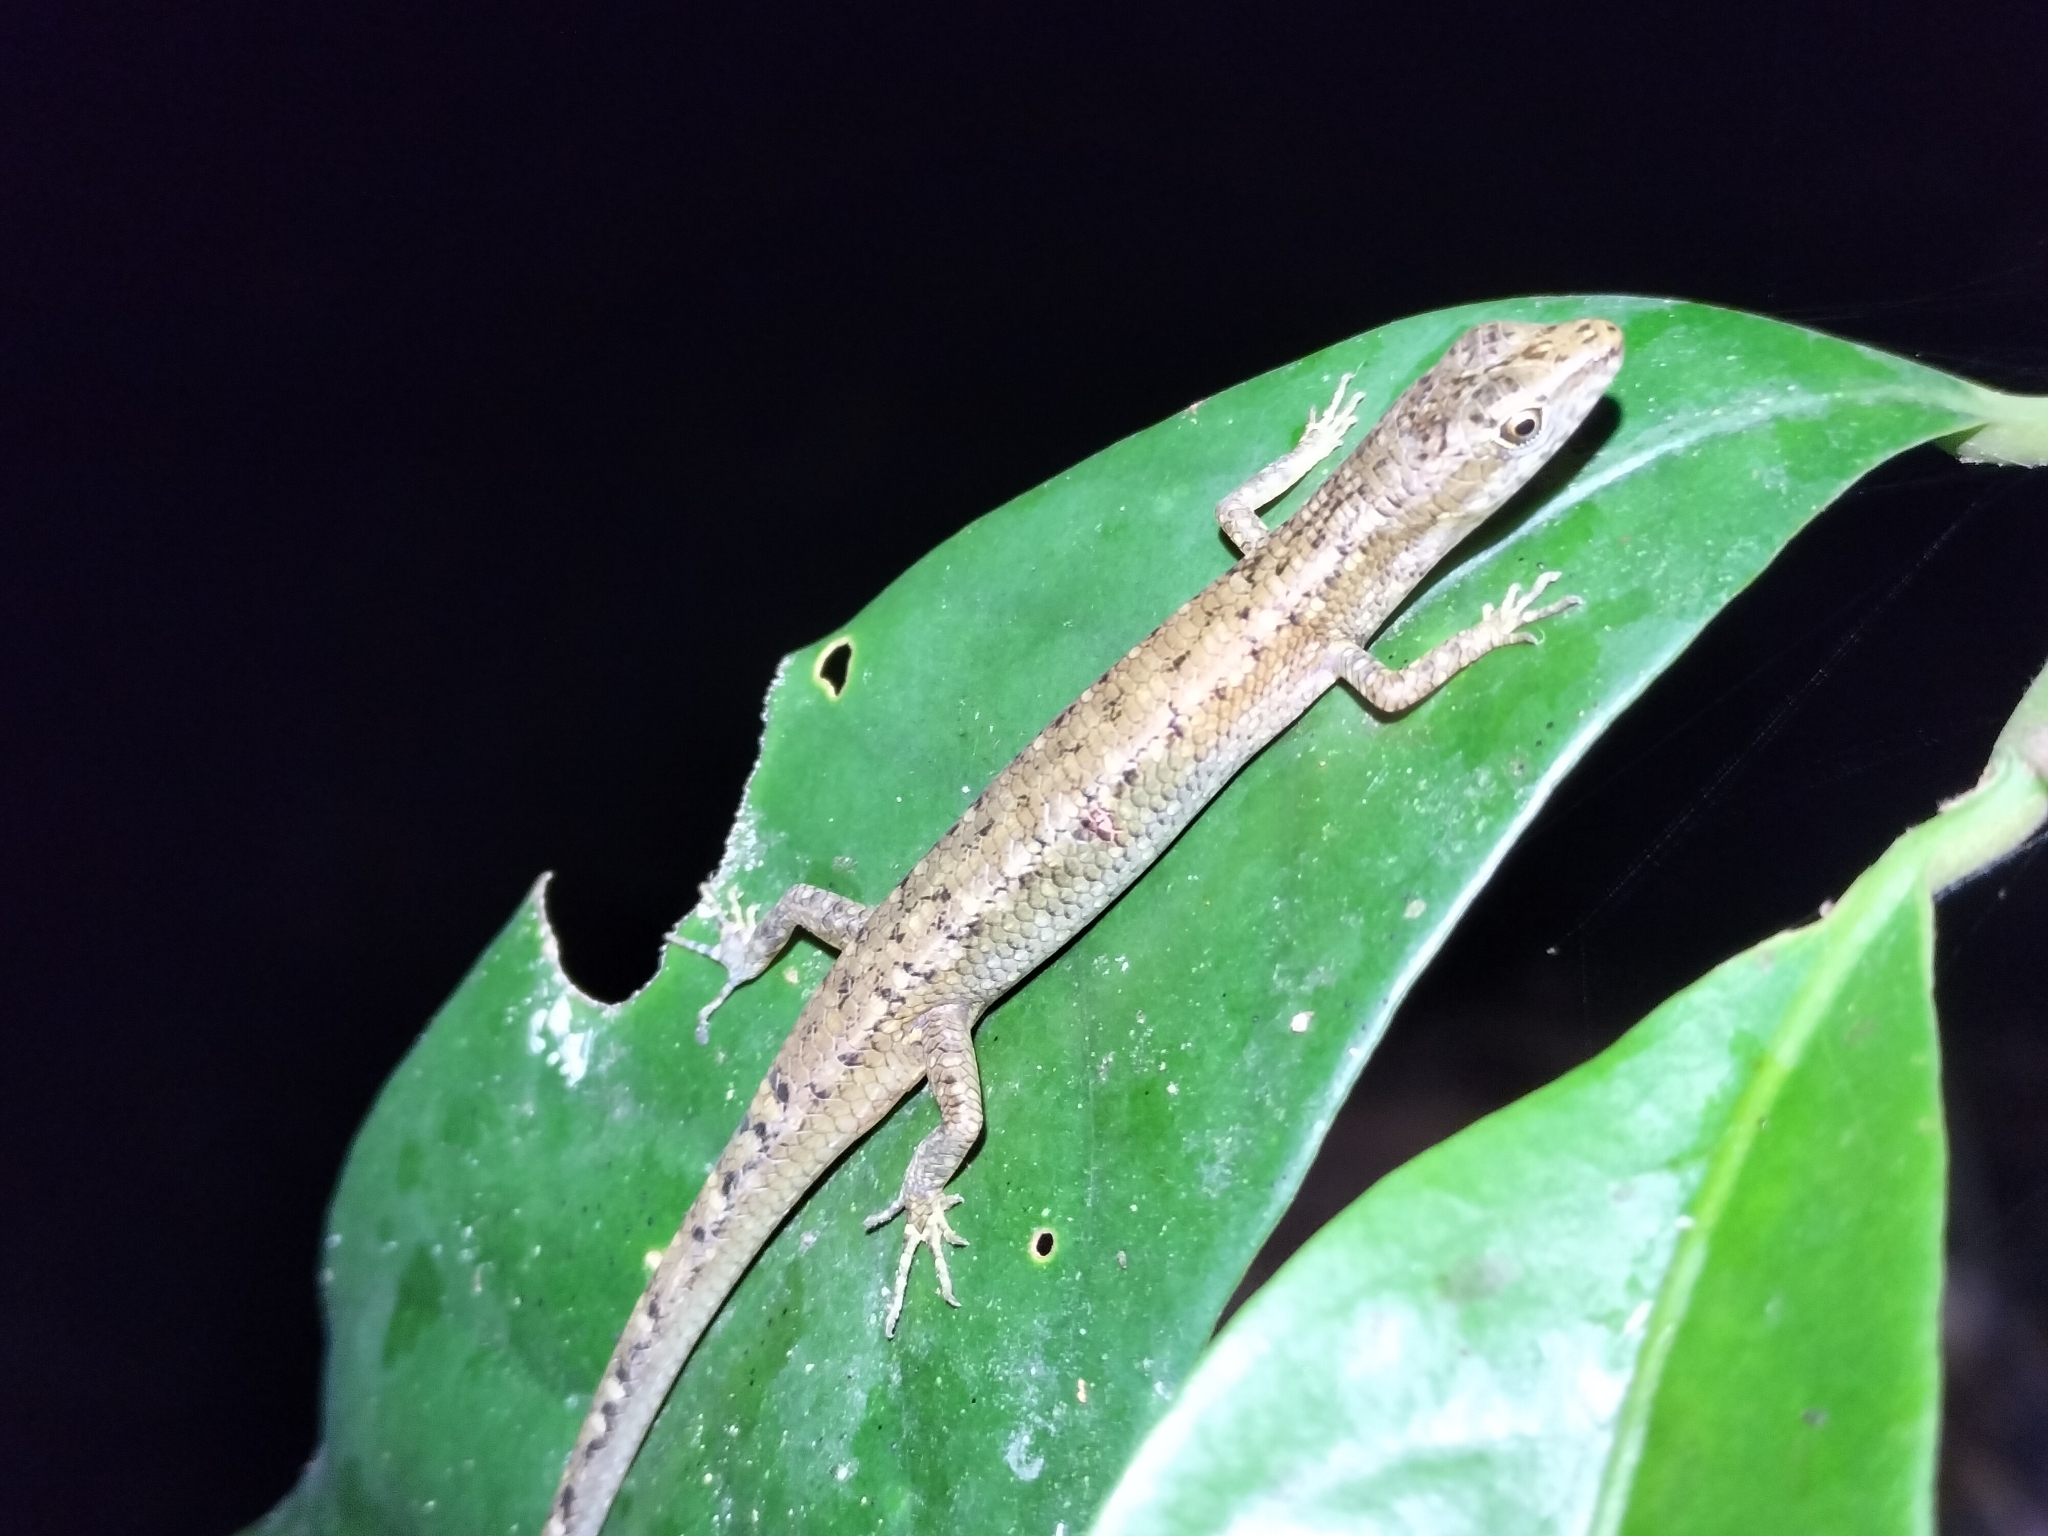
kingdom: Animalia
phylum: Chordata
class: Squamata
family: Scincidae
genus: Saproscincus
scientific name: Saproscincus basiliscus
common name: Pale-lipped shadeskink
